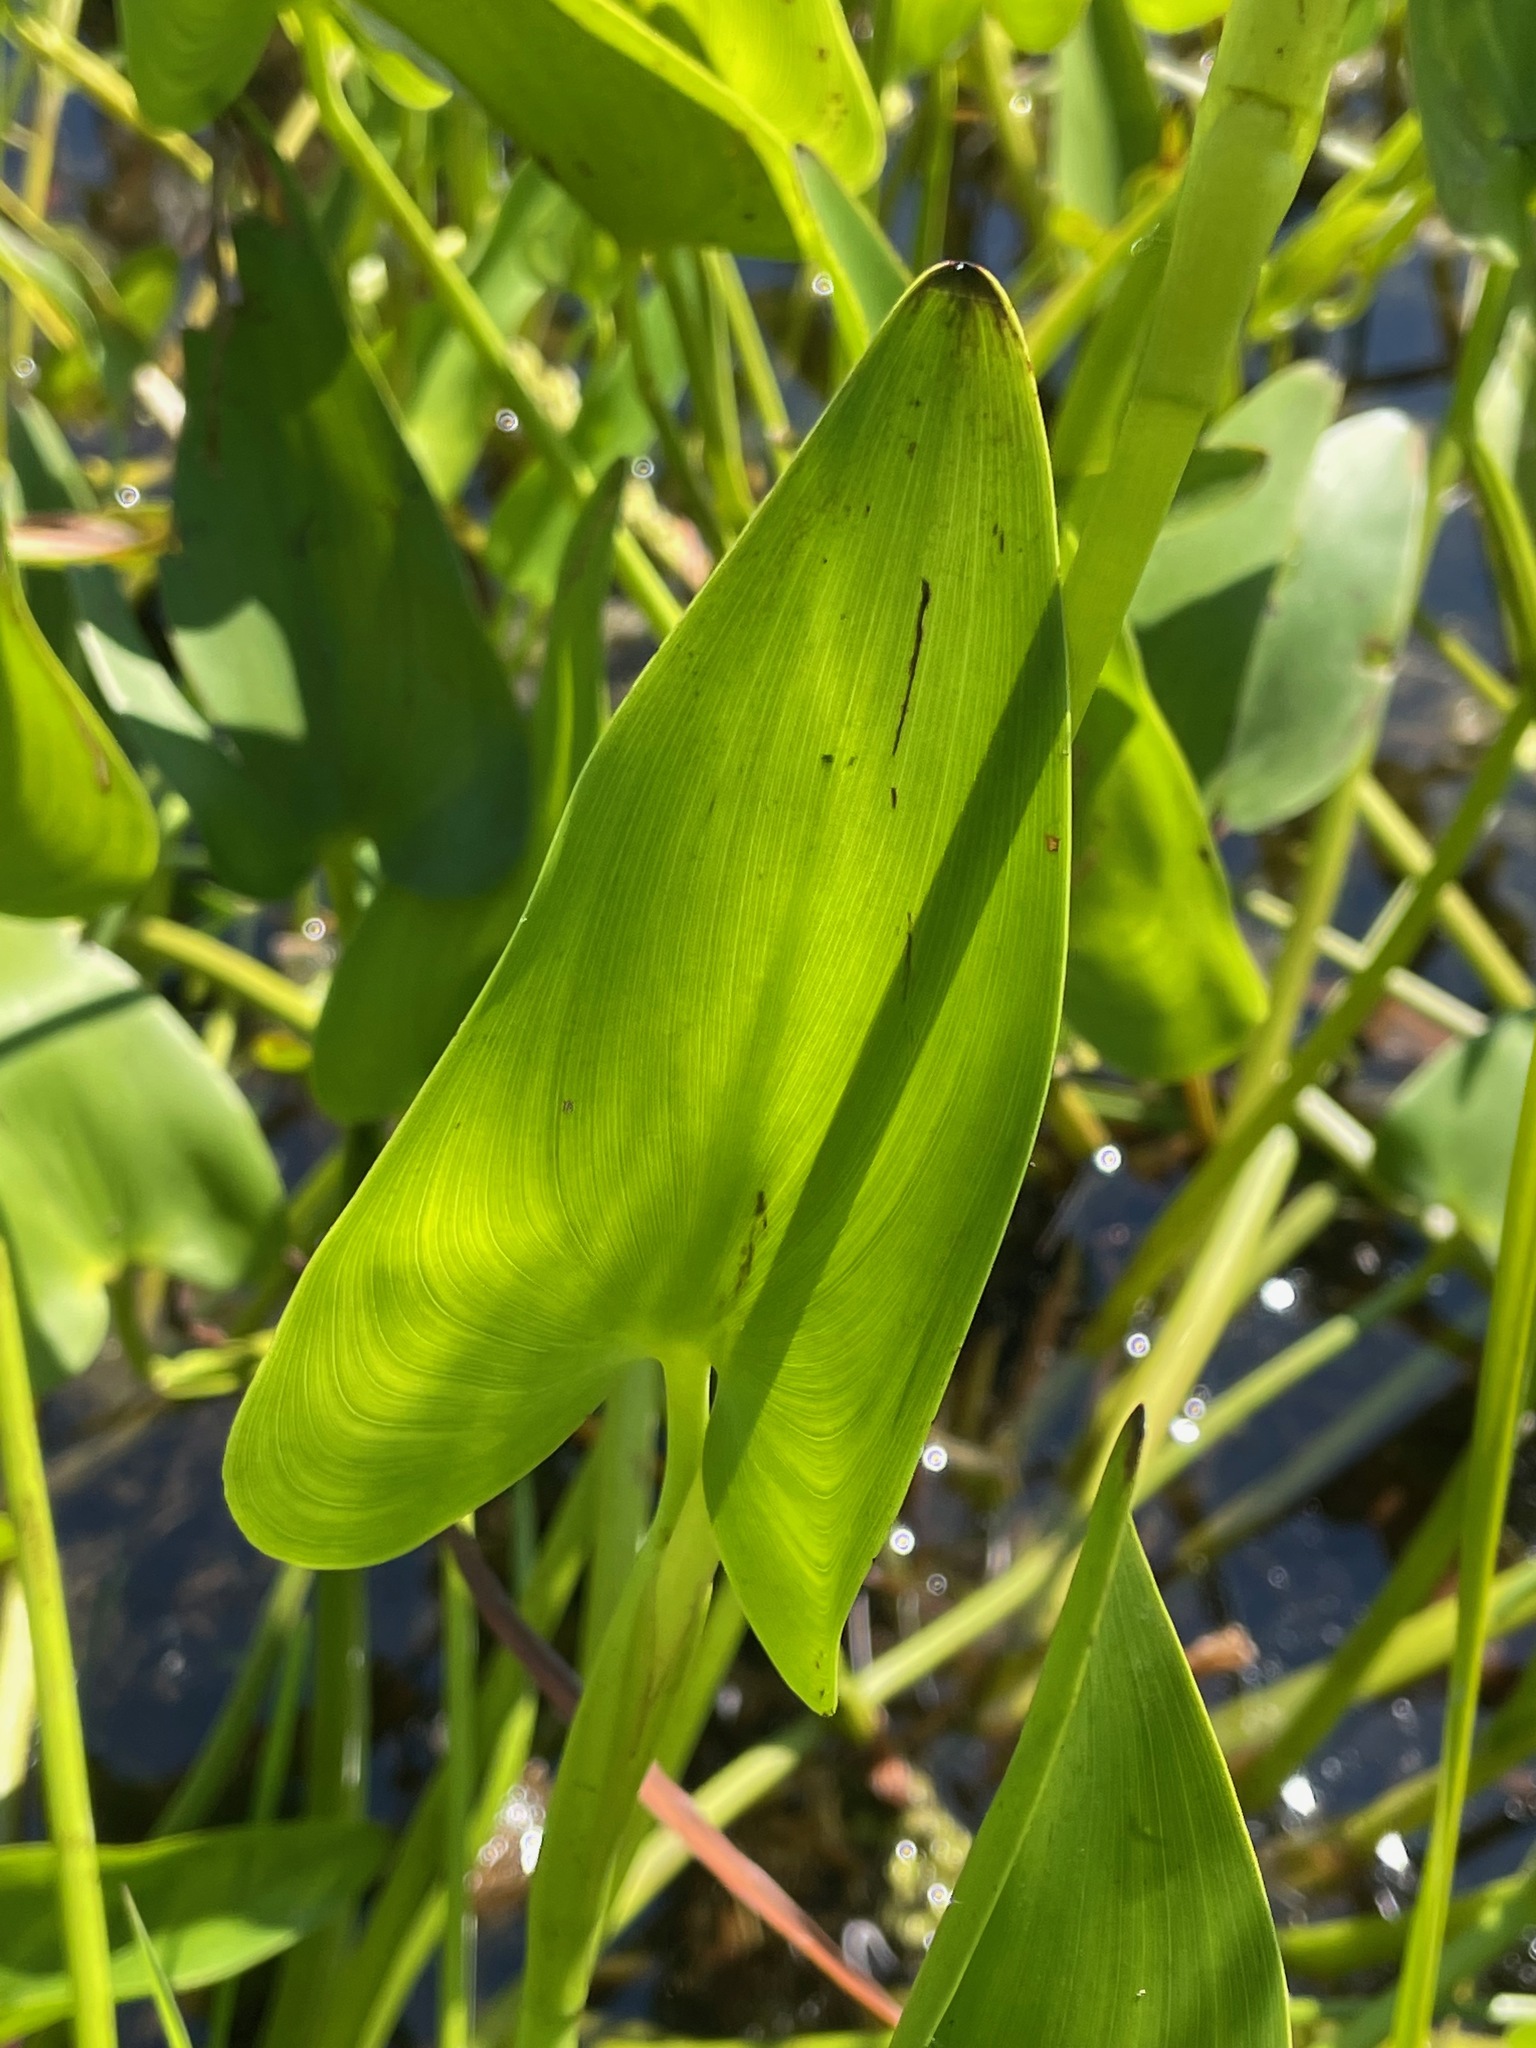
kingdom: Plantae
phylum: Tracheophyta
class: Liliopsida
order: Commelinales
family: Pontederiaceae
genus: Pontederia
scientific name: Pontederia cordata
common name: Pickerelweed
